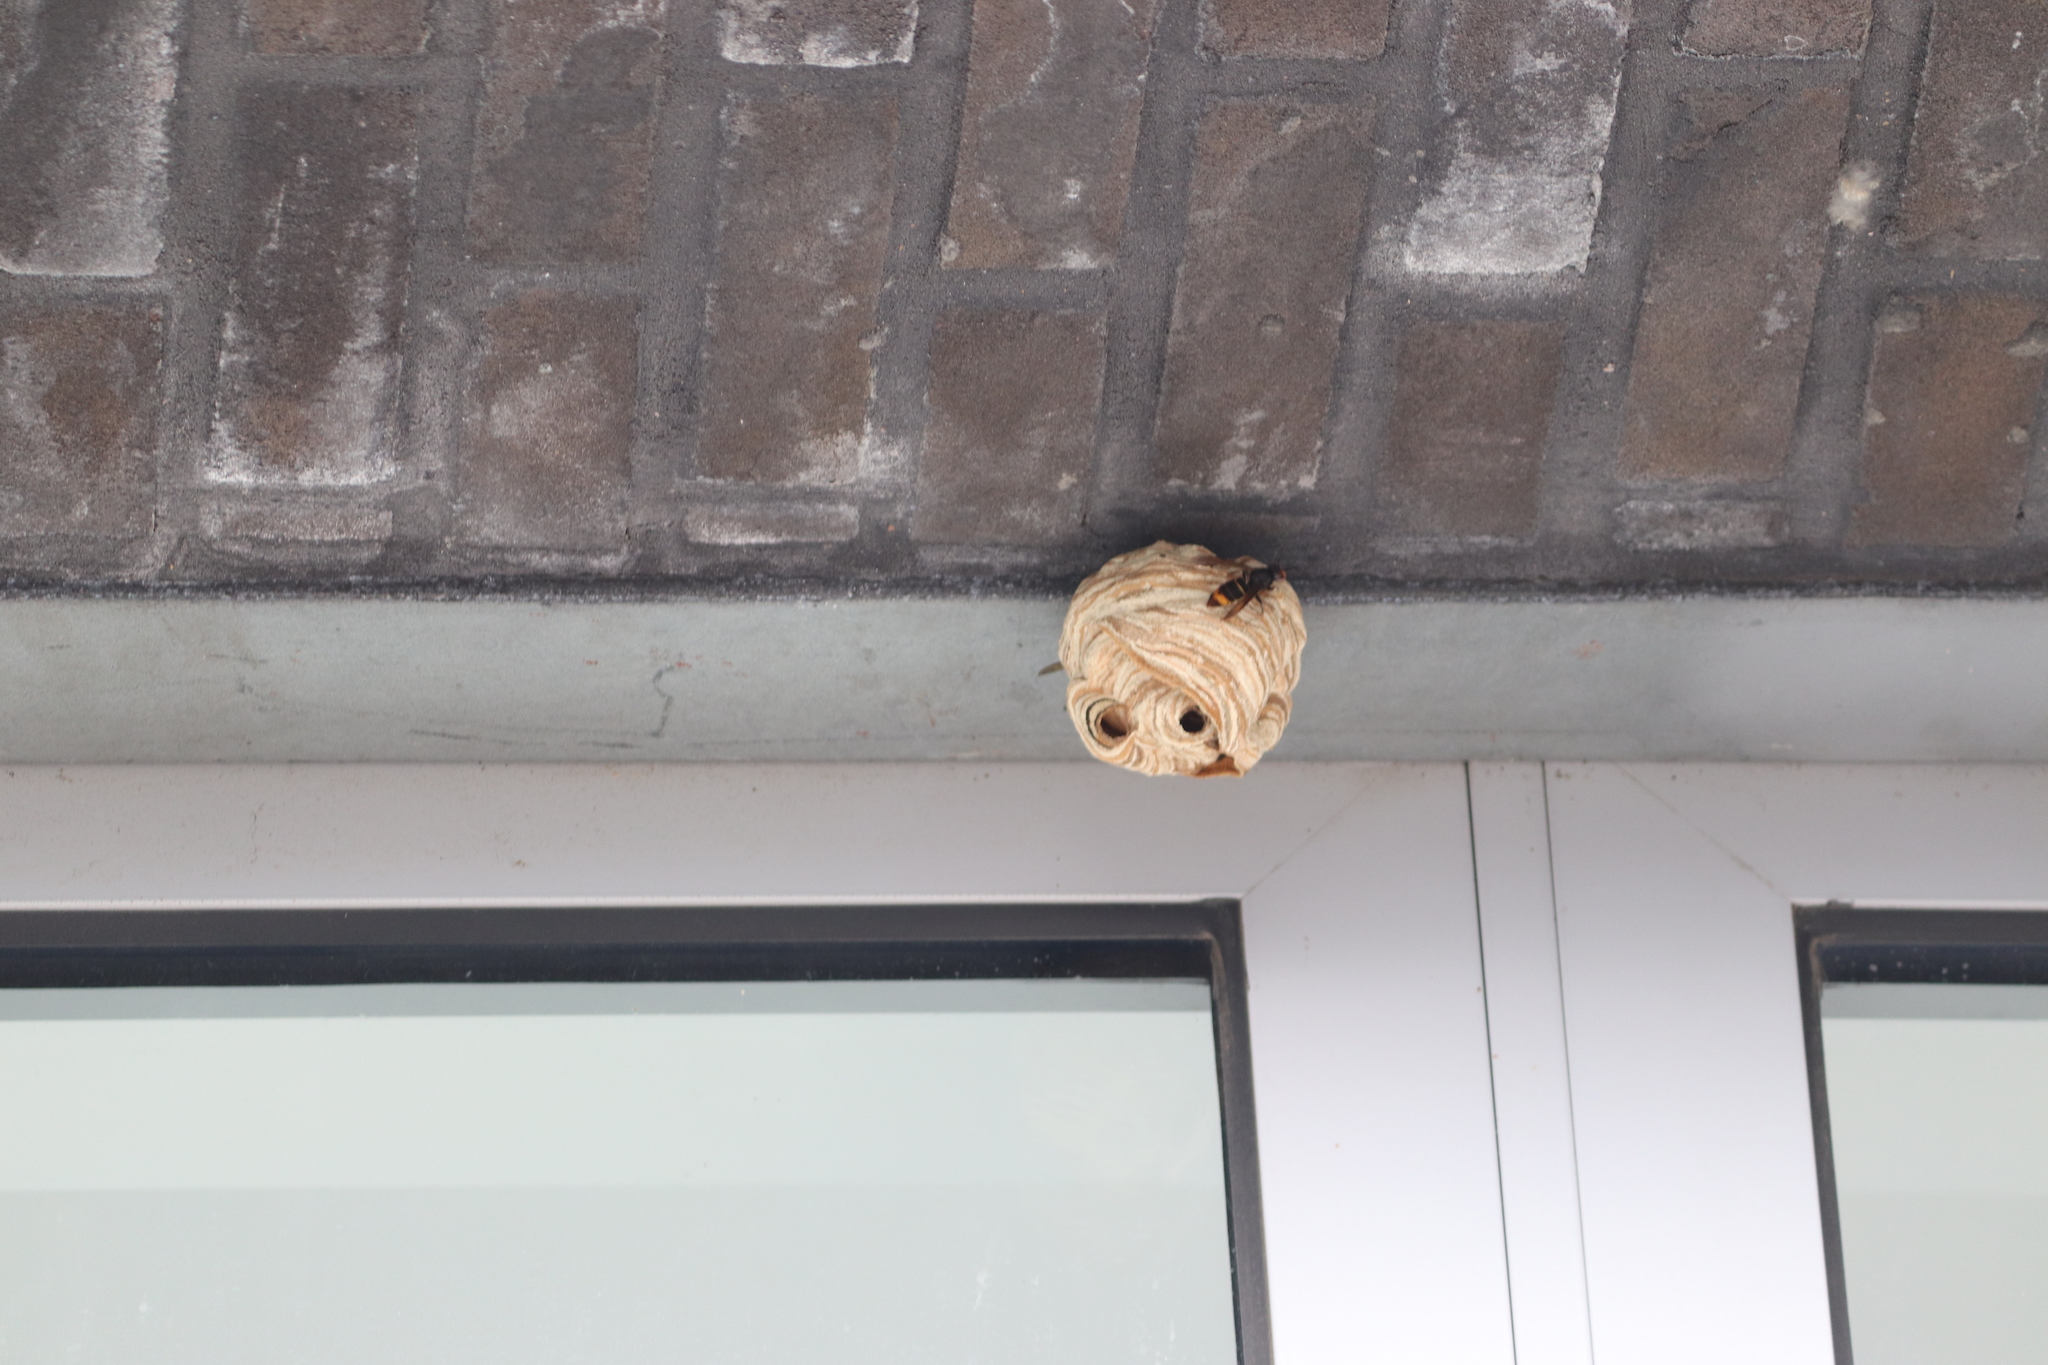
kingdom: Animalia
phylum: Arthropoda
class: Insecta
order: Hymenoptera
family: Vespidae
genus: Vespa
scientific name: Vespa velutina
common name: Asian hornet
